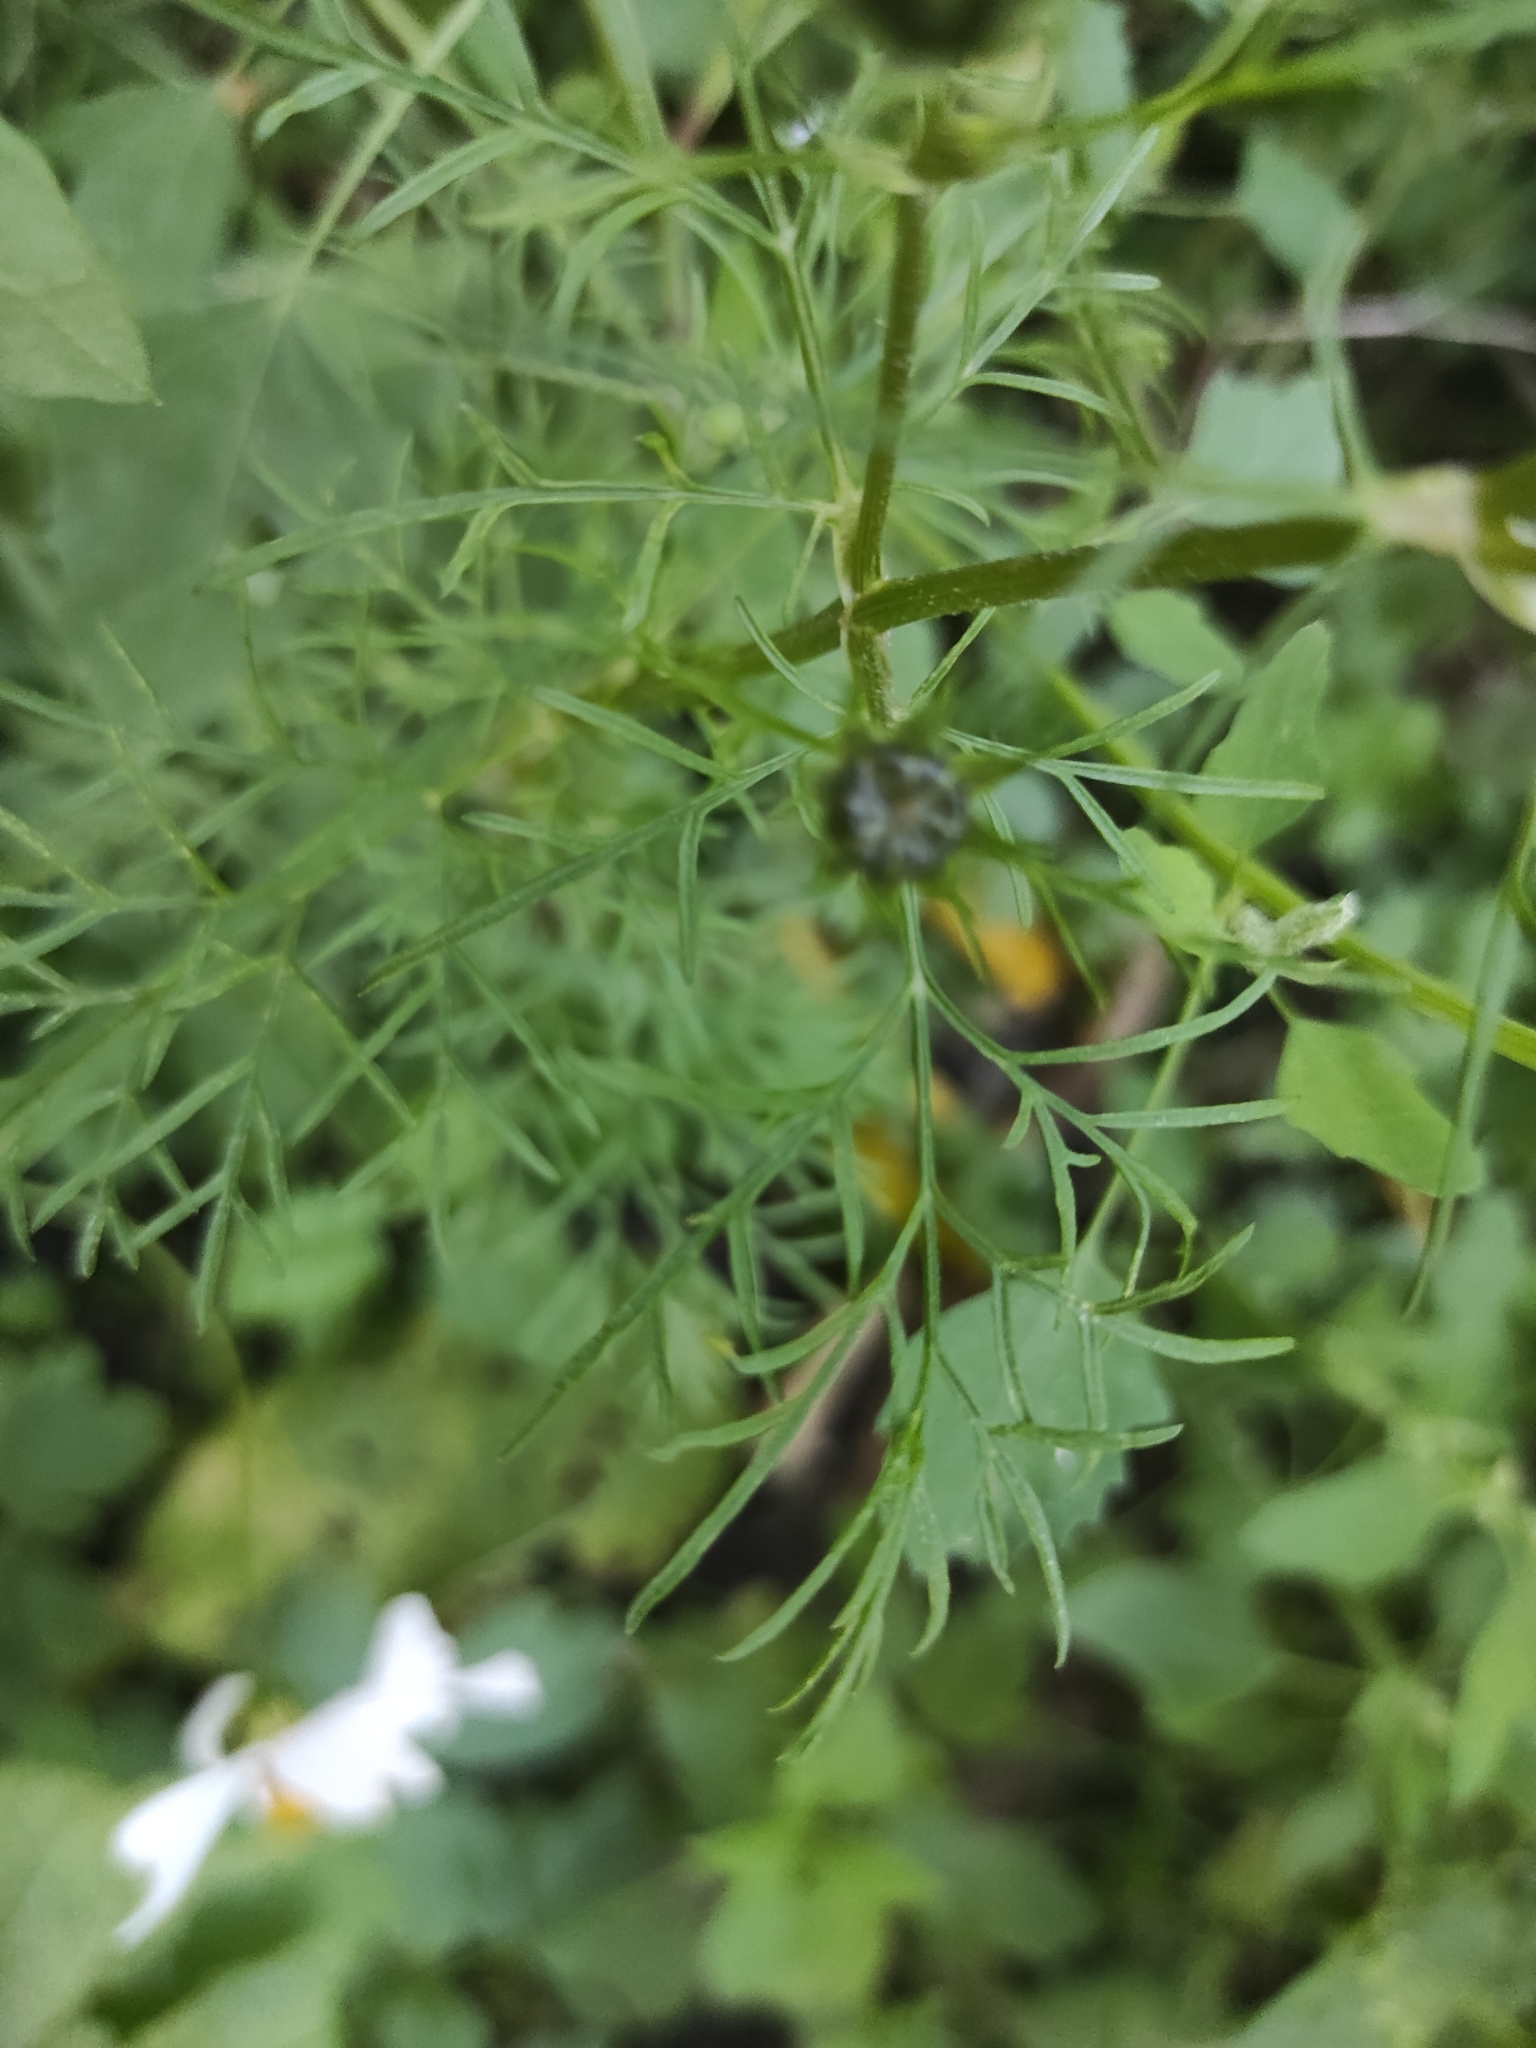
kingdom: Plantae
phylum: Tracheophyta
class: Magnoliopsida
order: Asterales
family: Asteraceae
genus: Cosmos
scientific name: Cosmos bipinnatus
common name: Garden cosmos
